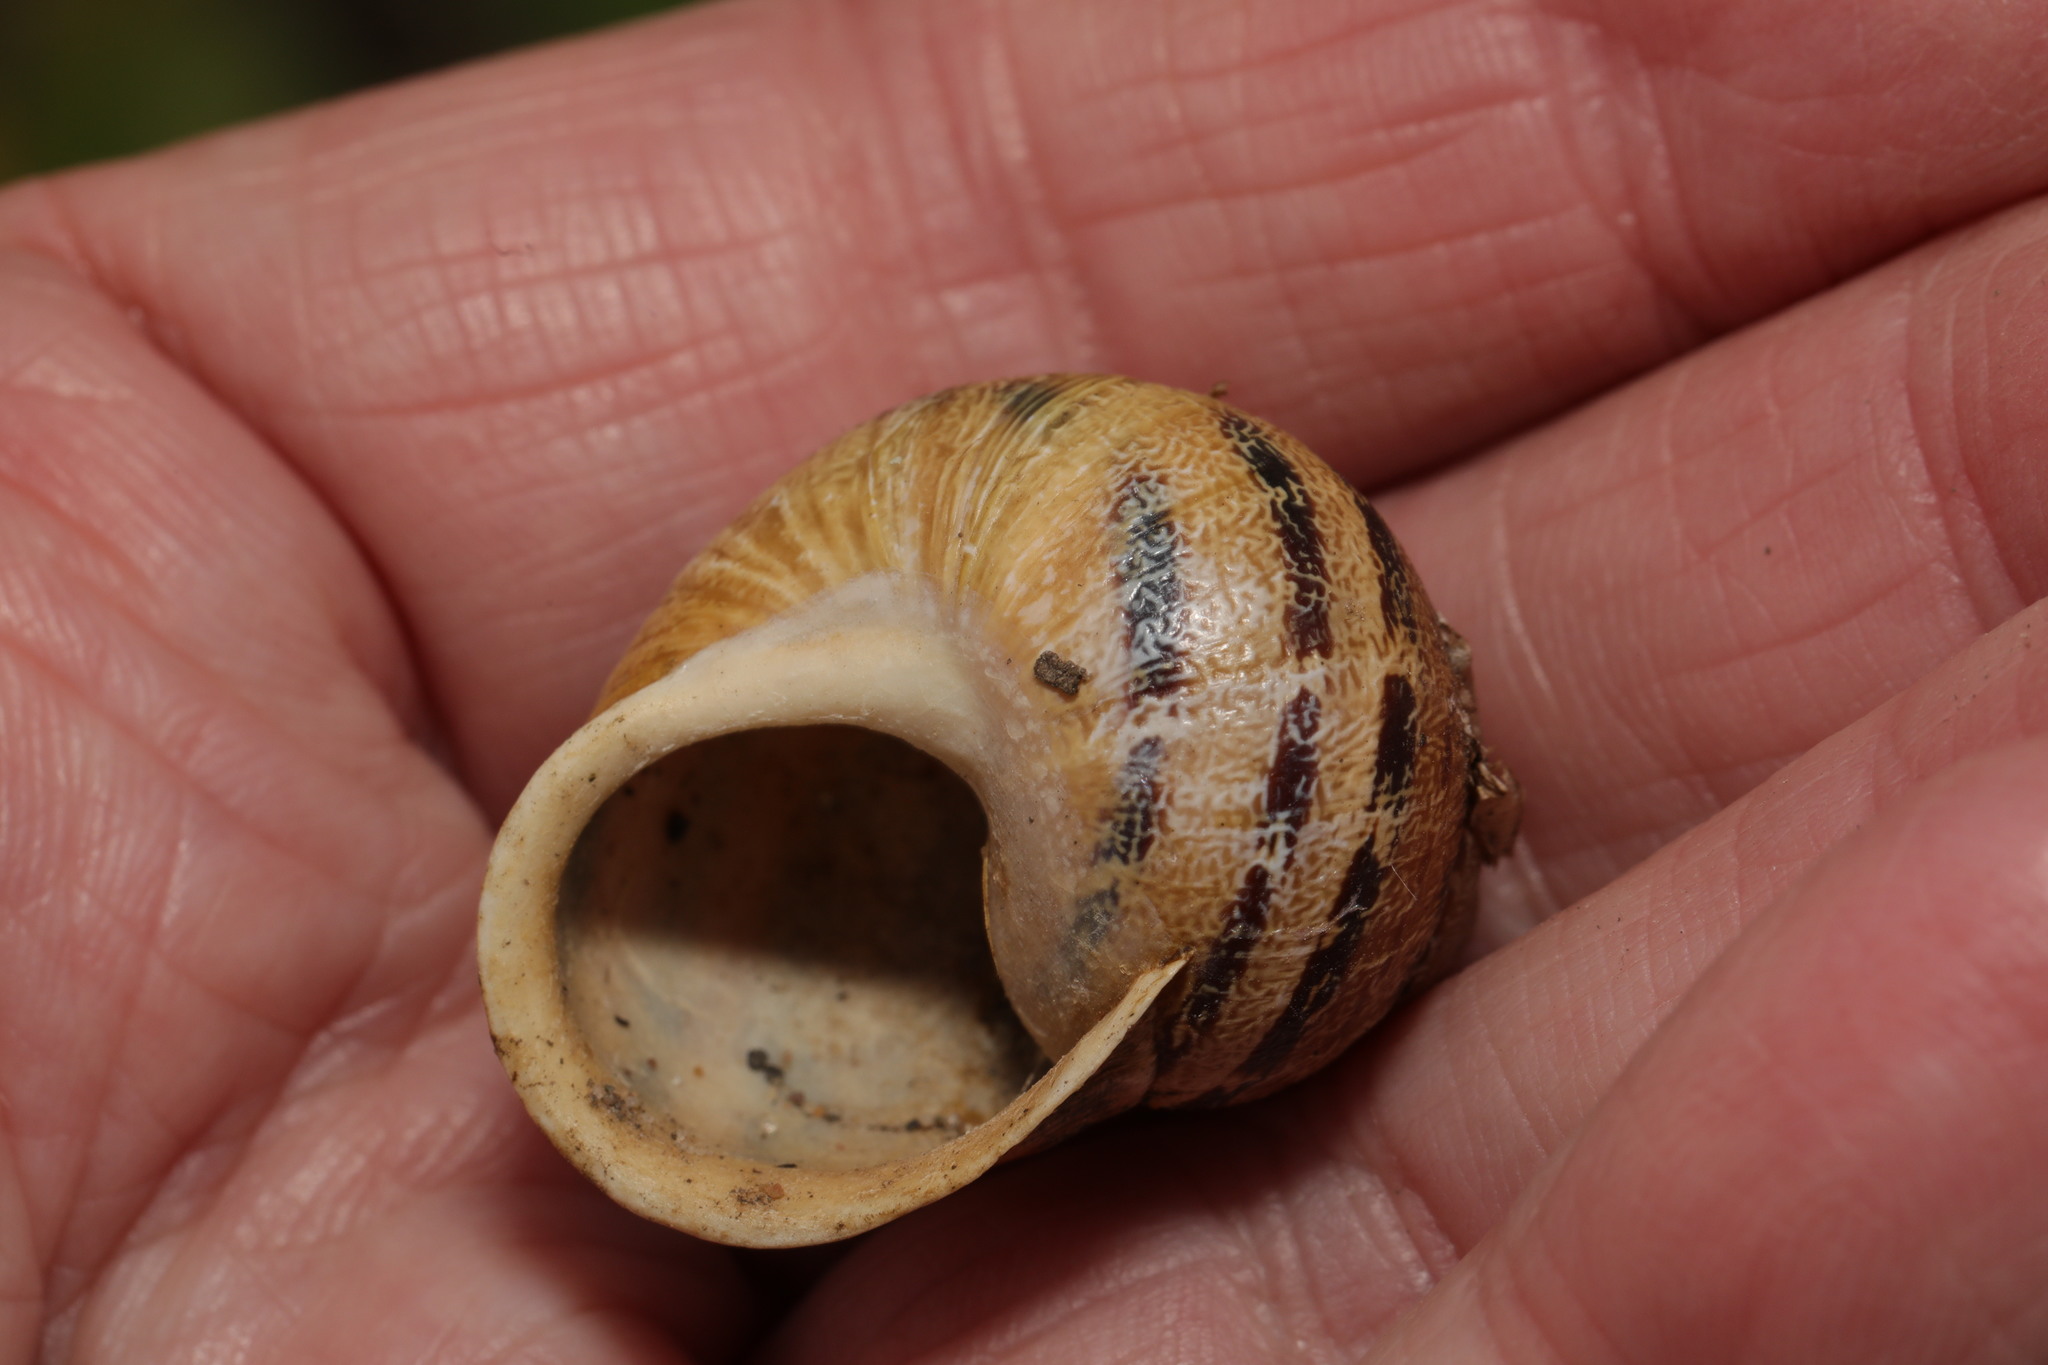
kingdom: Animalia
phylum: Mollusca
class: Gastropoda
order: Stylommatophora
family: Helicidae
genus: Cornu
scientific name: Cornu aspersum
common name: Brown garden snail
